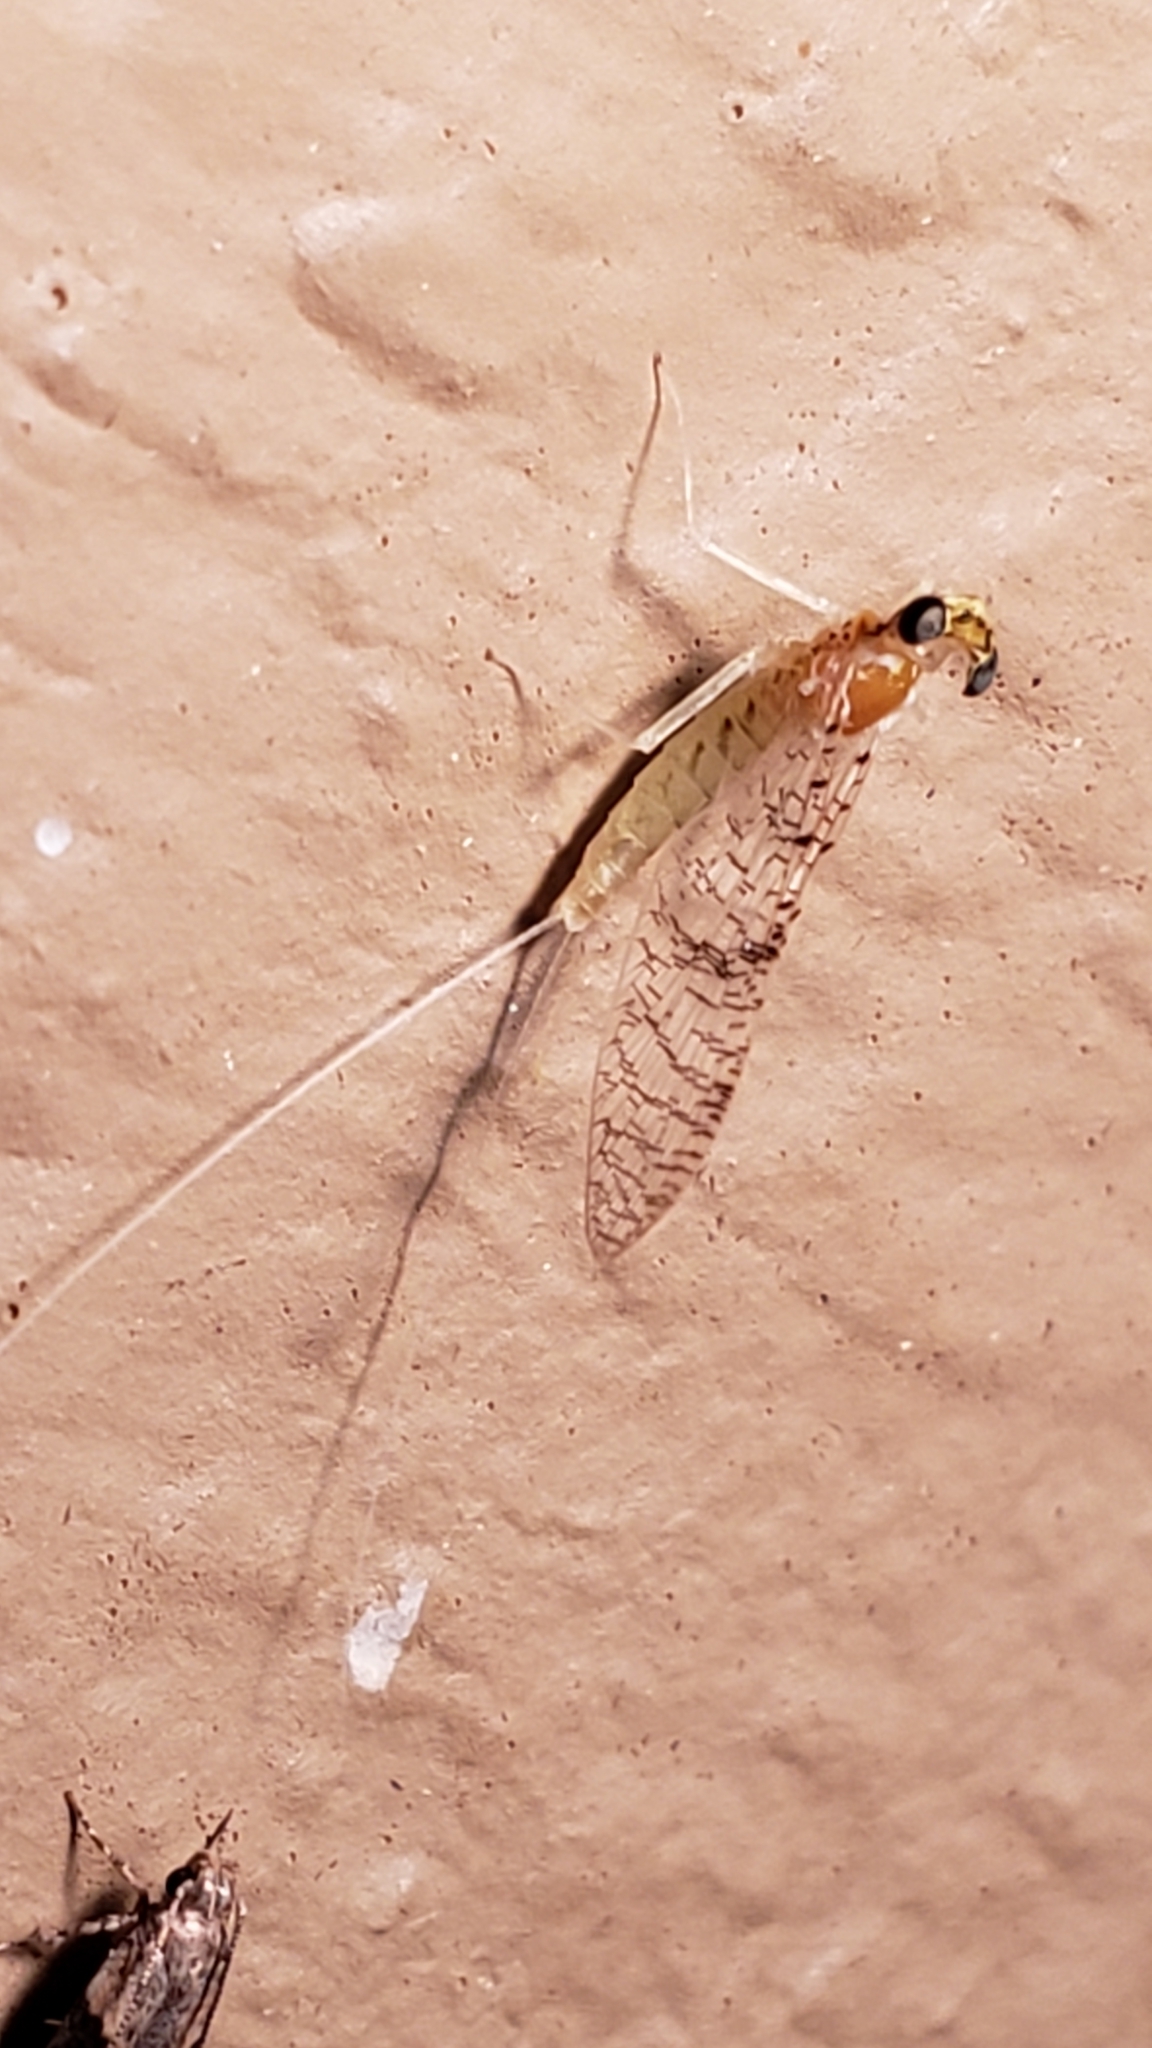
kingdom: Animalia
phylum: Arthropoda
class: Insecta
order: Ephemeroptera
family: Heptageniidae
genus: Leucrocuta
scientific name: Leucrocuta hebe
